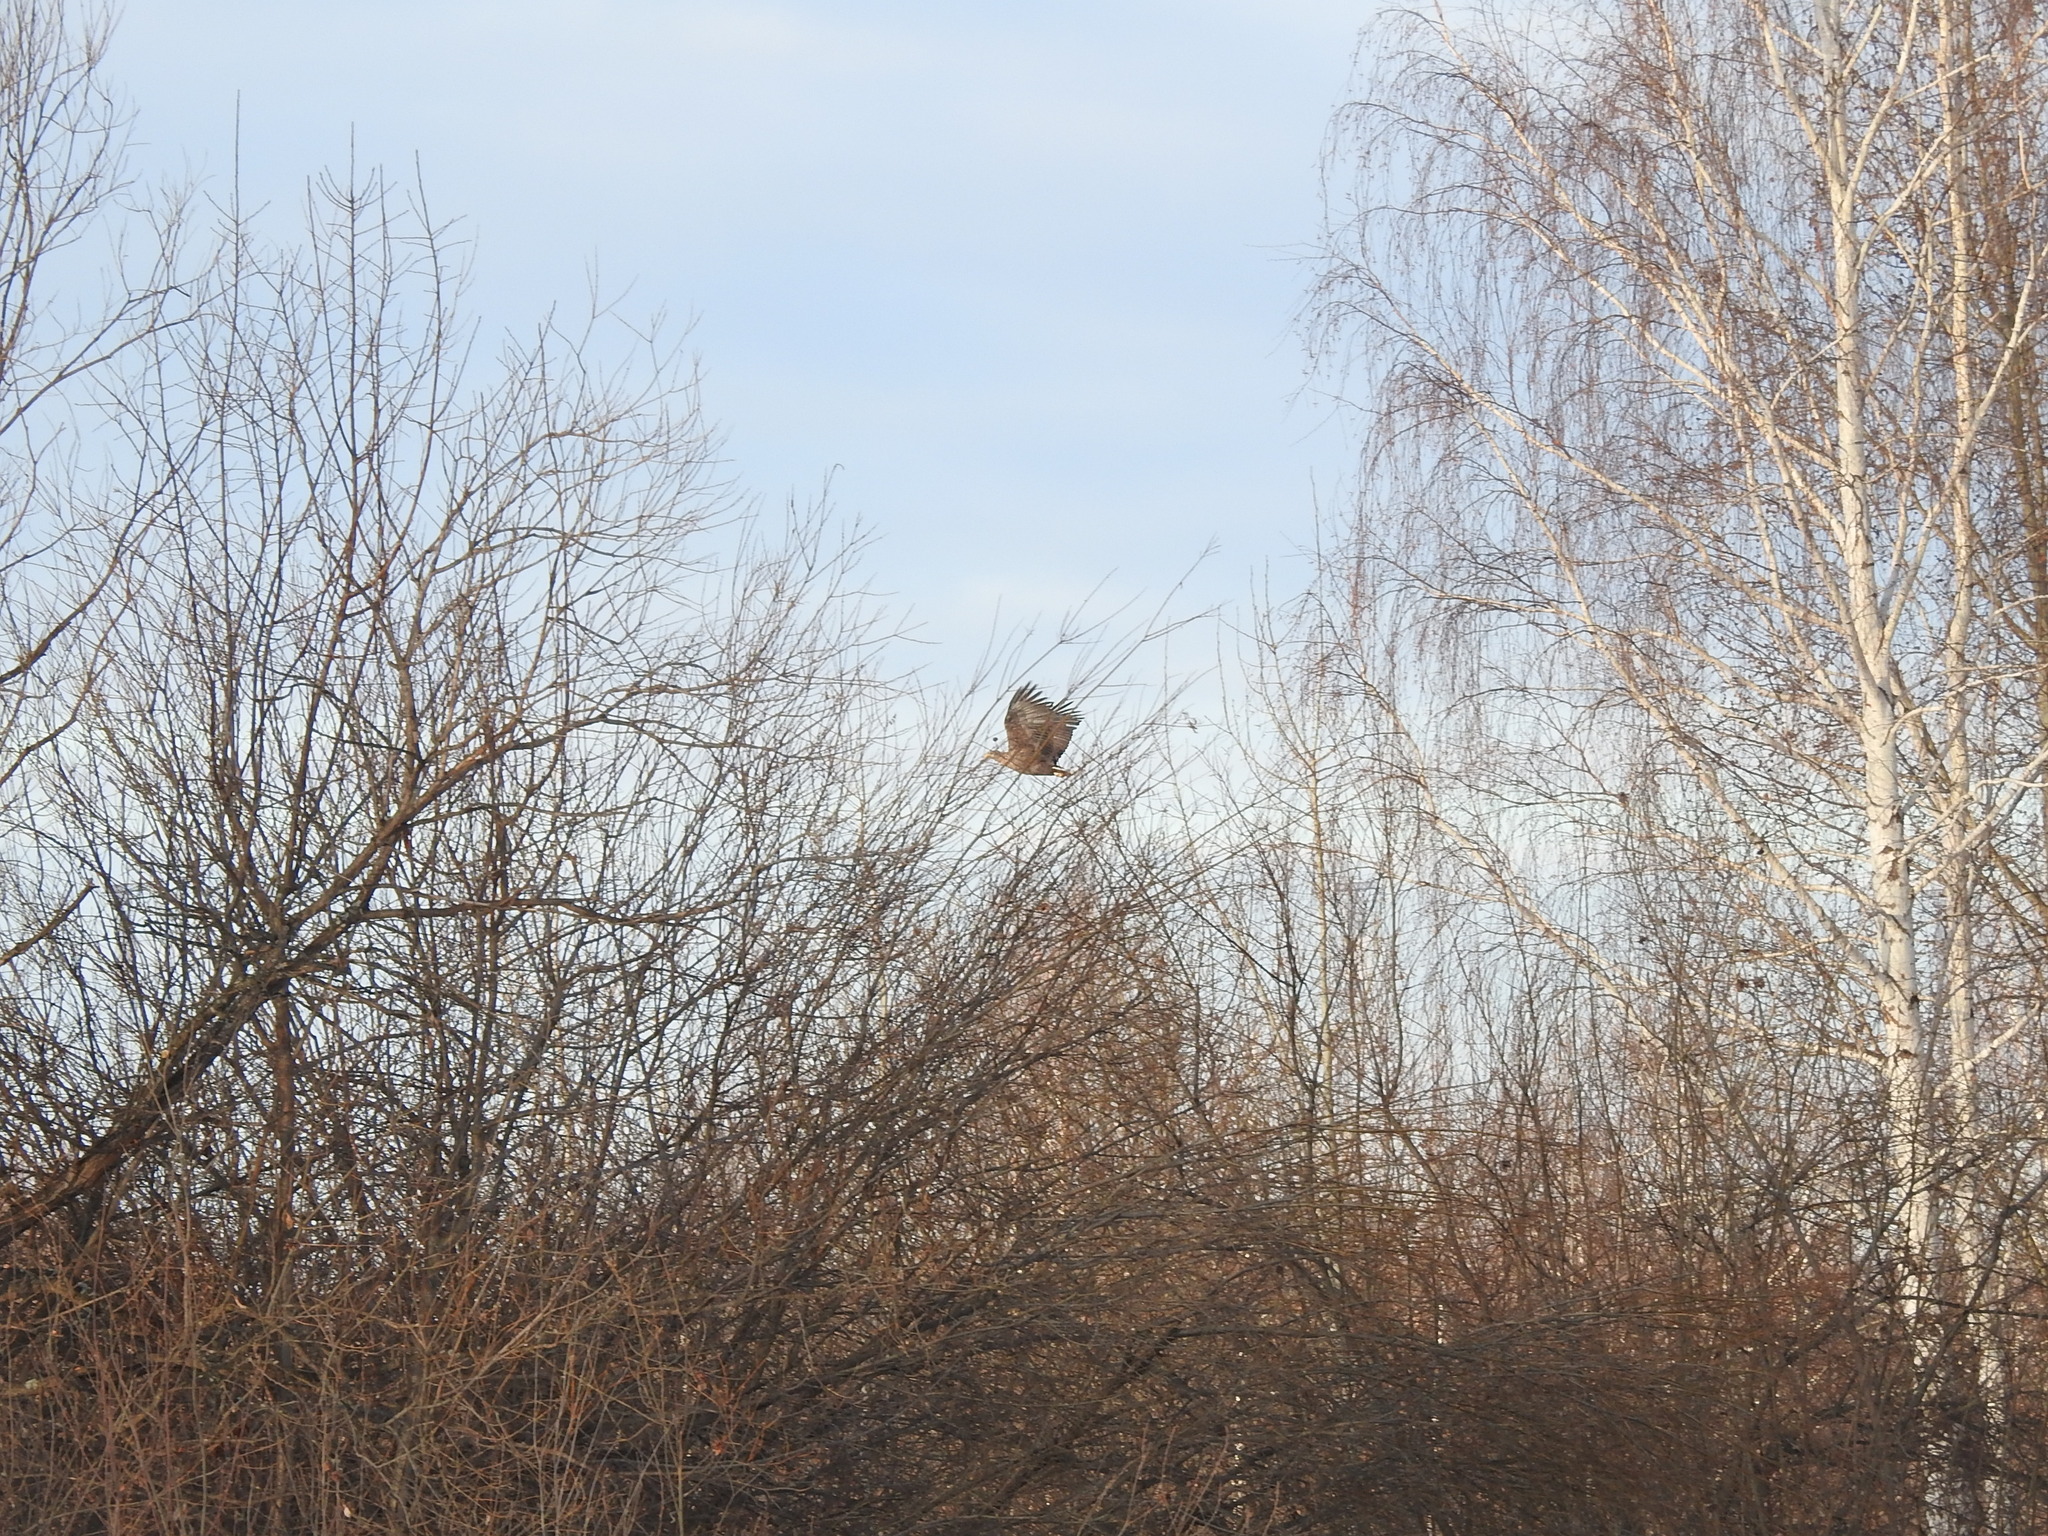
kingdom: Animalia
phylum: Chordata
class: Aves
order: Accipitriformes
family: Accipitridae
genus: Haliaeetus
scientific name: Haliaeetus albicilla
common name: White-tailed eagle
